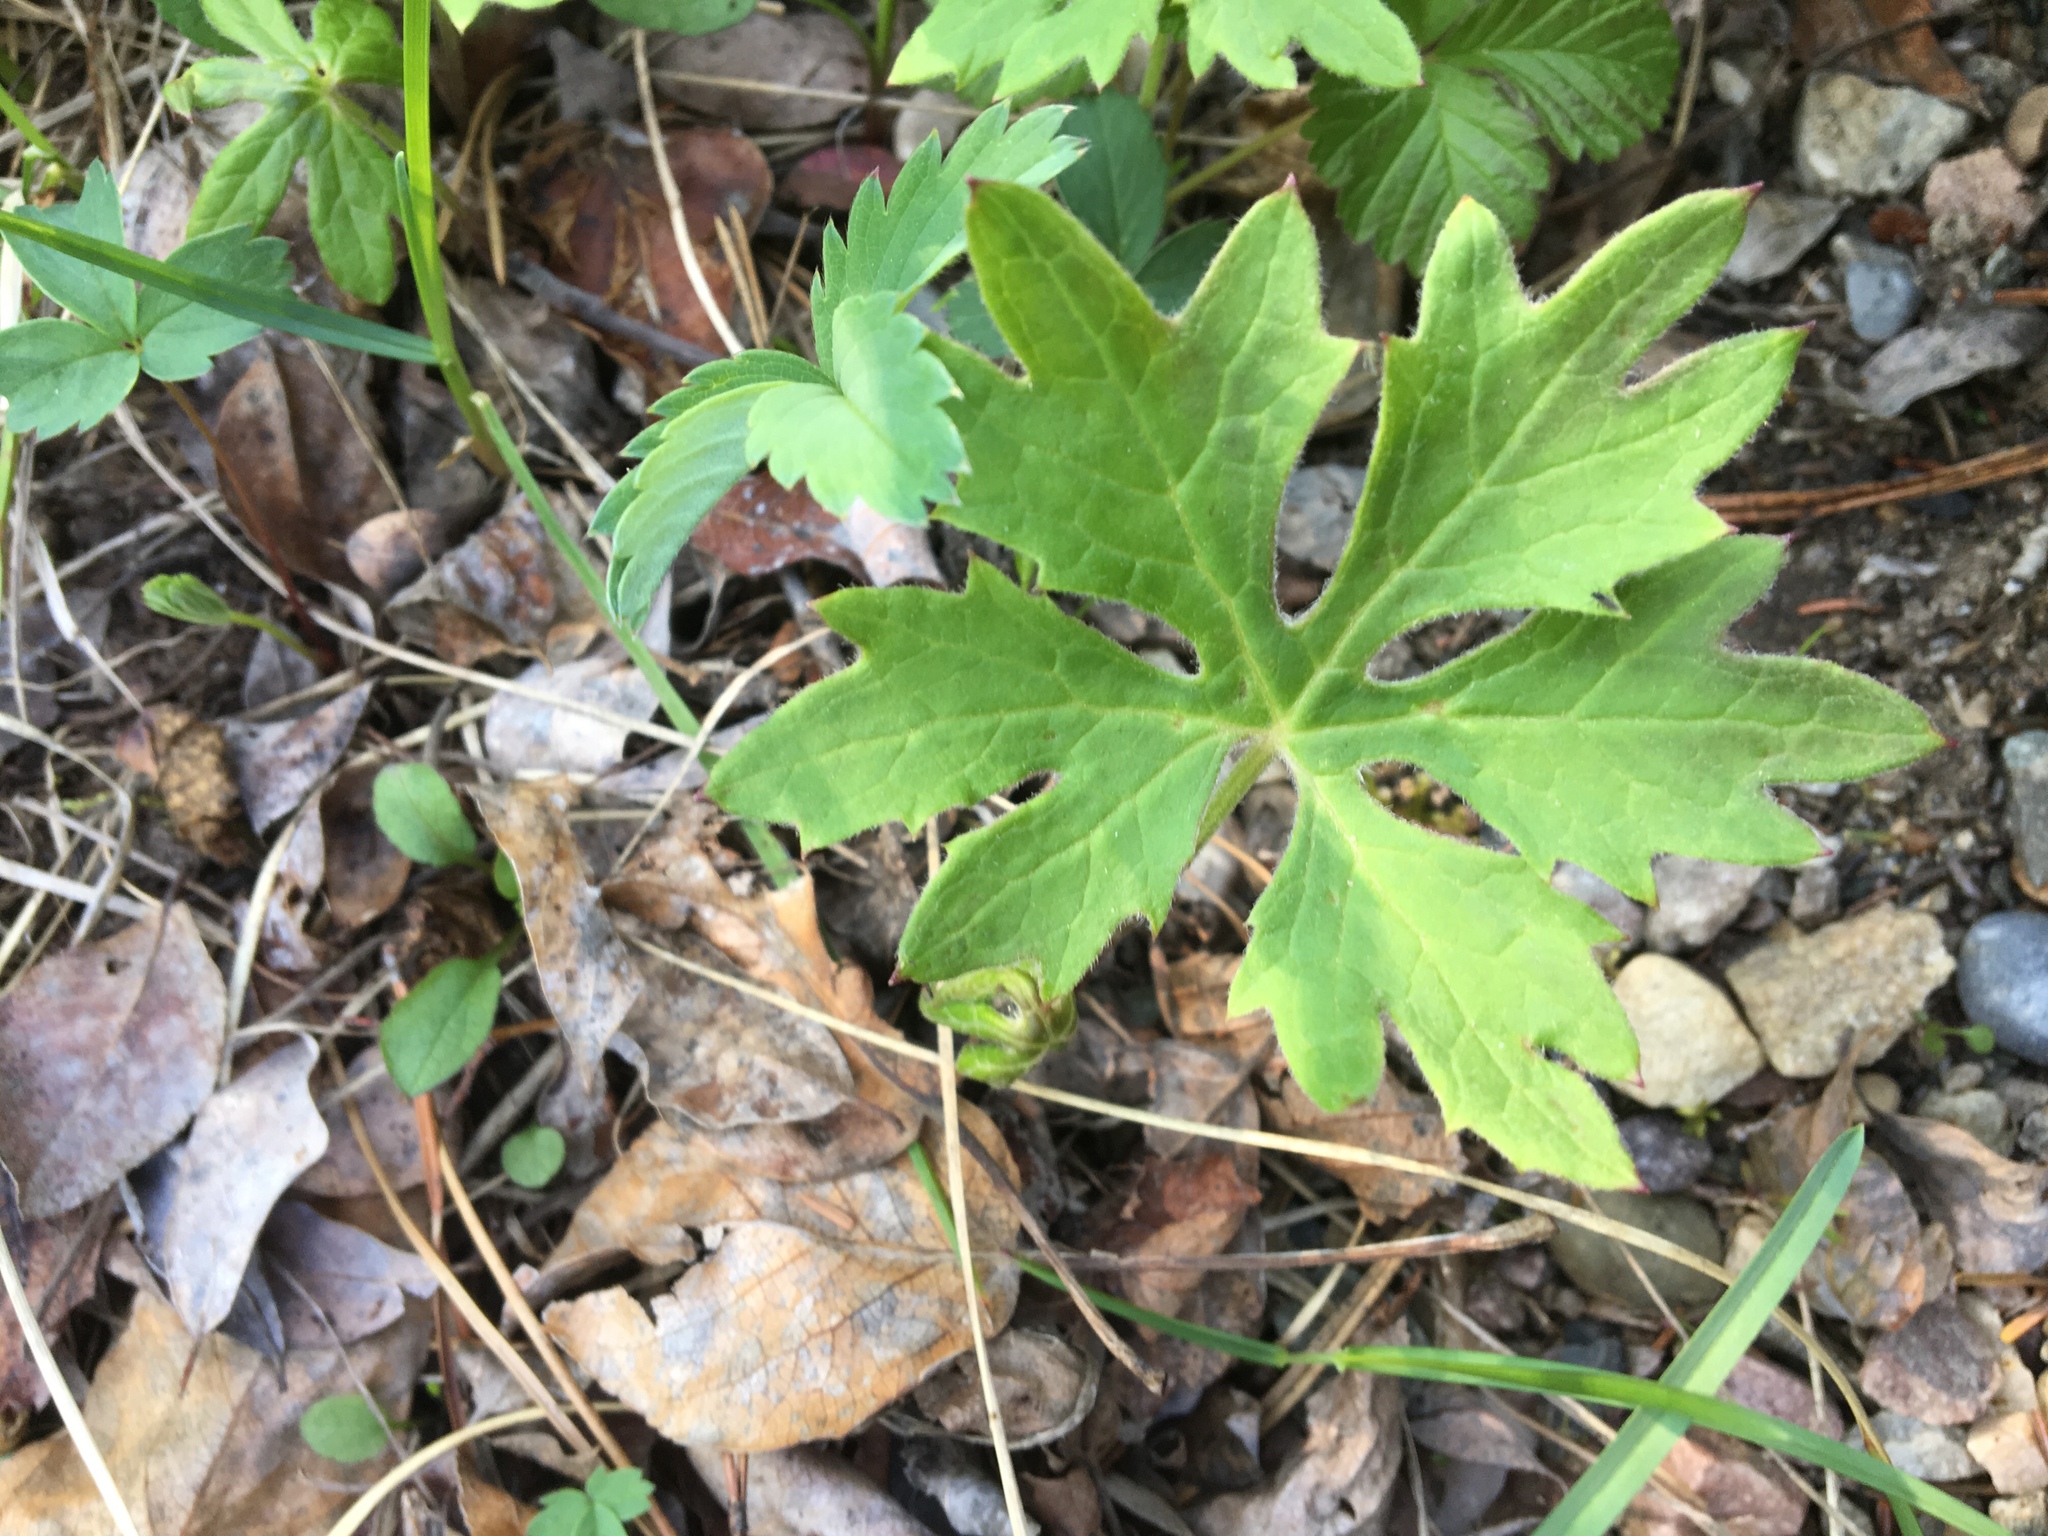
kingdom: Plantae
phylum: Tracheophyta
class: Magnoliopsida
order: Geraniales
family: Geraniaceae
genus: Geranium
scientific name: Geranium richardsonii
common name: Richardson's crane's-bill
